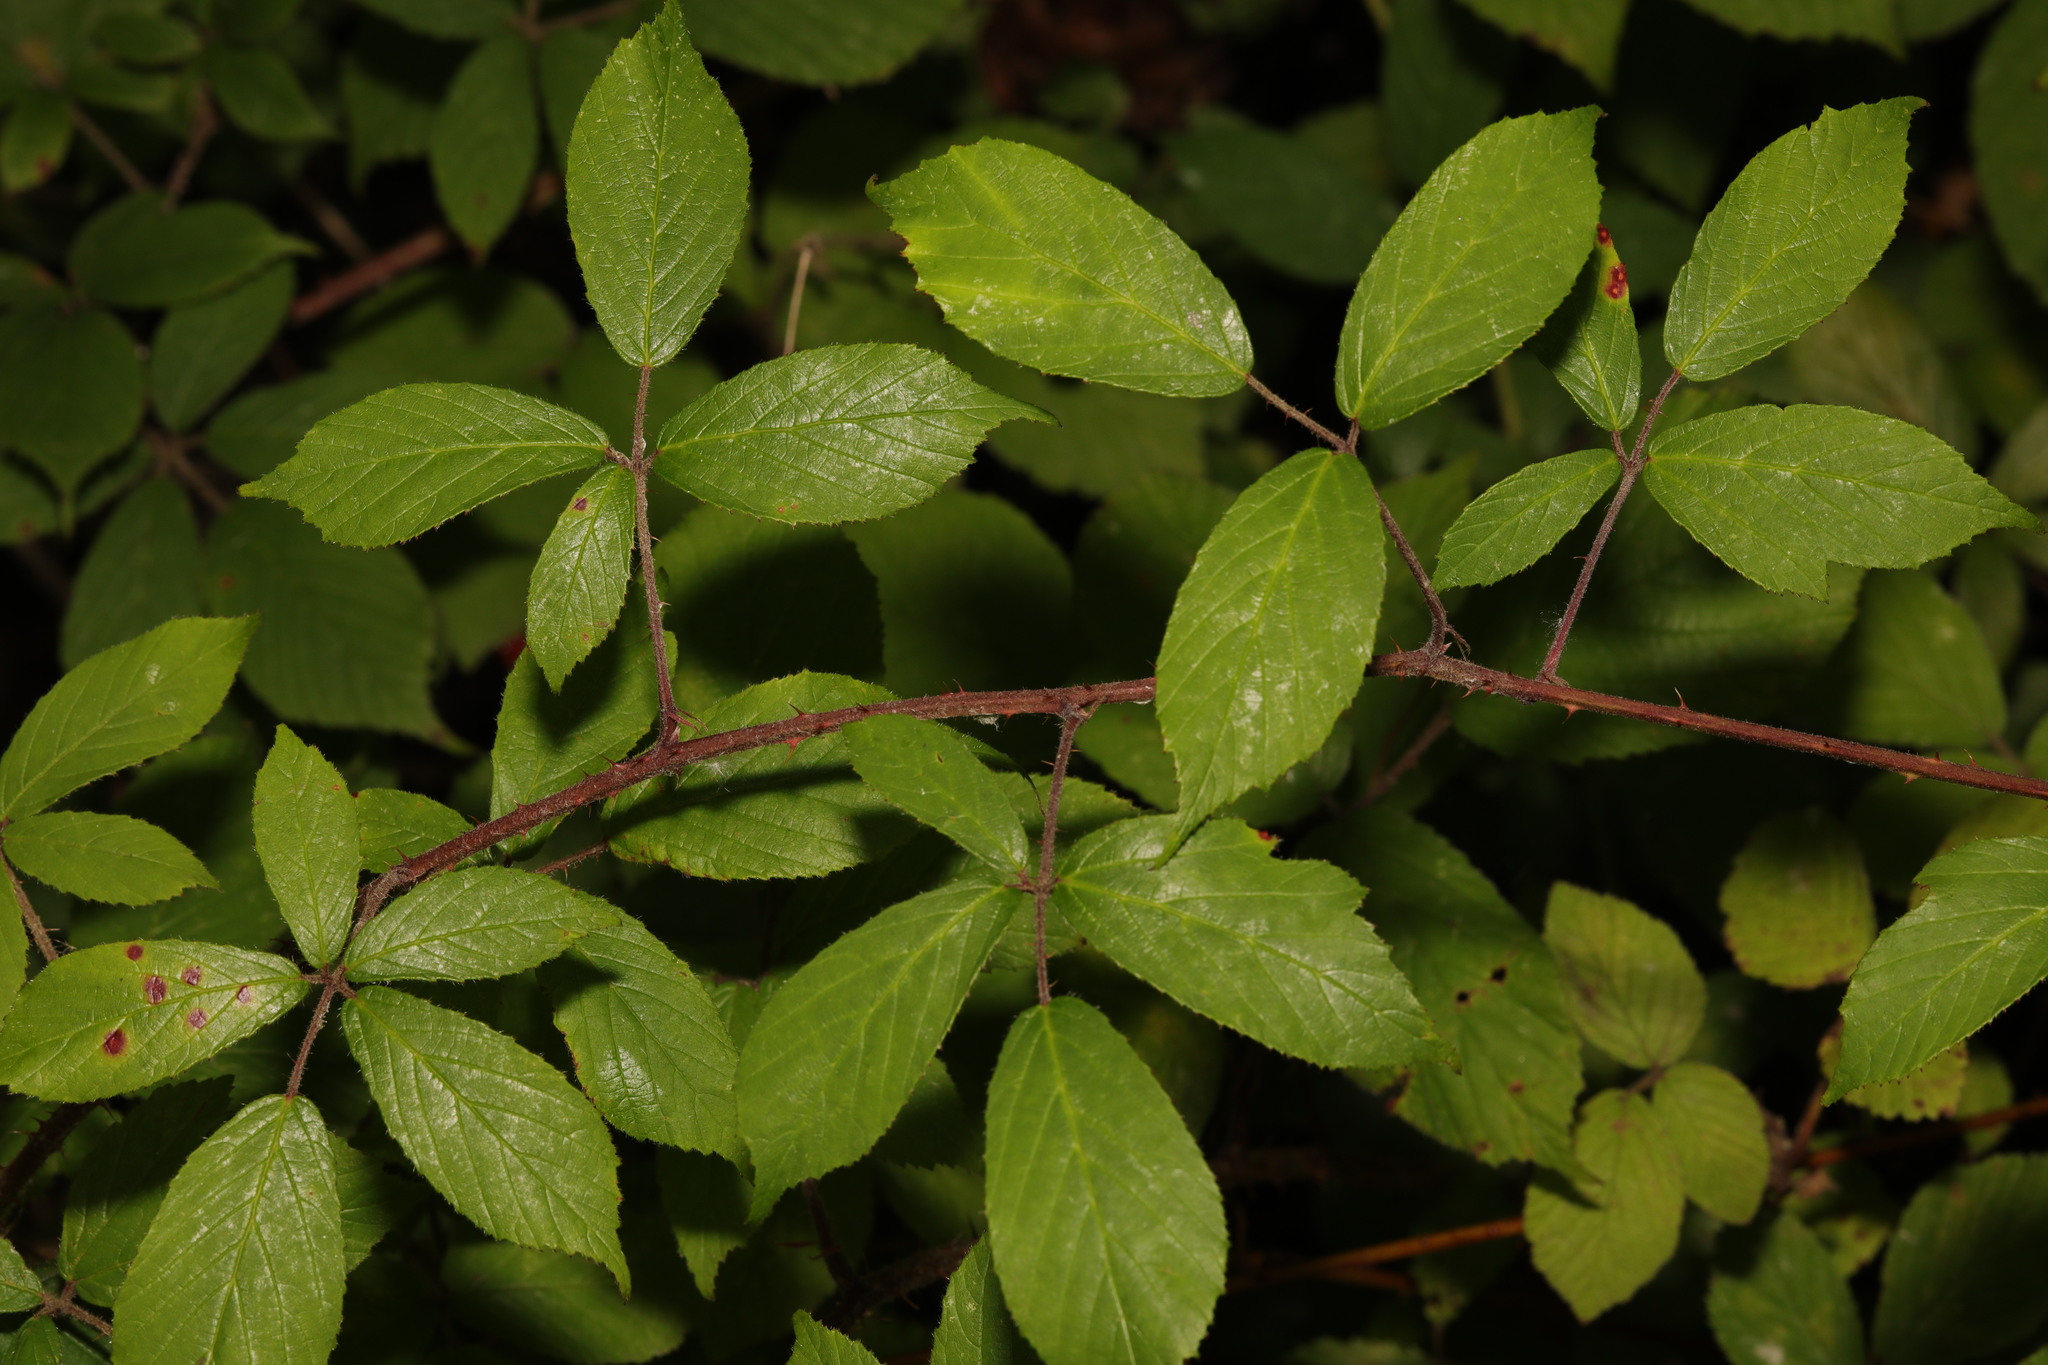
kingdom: Plantae
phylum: Tracheophyta
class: Magnoliopsida
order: Rosales
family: Rosaceae
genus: Rubus
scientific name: Rubus rufescens
